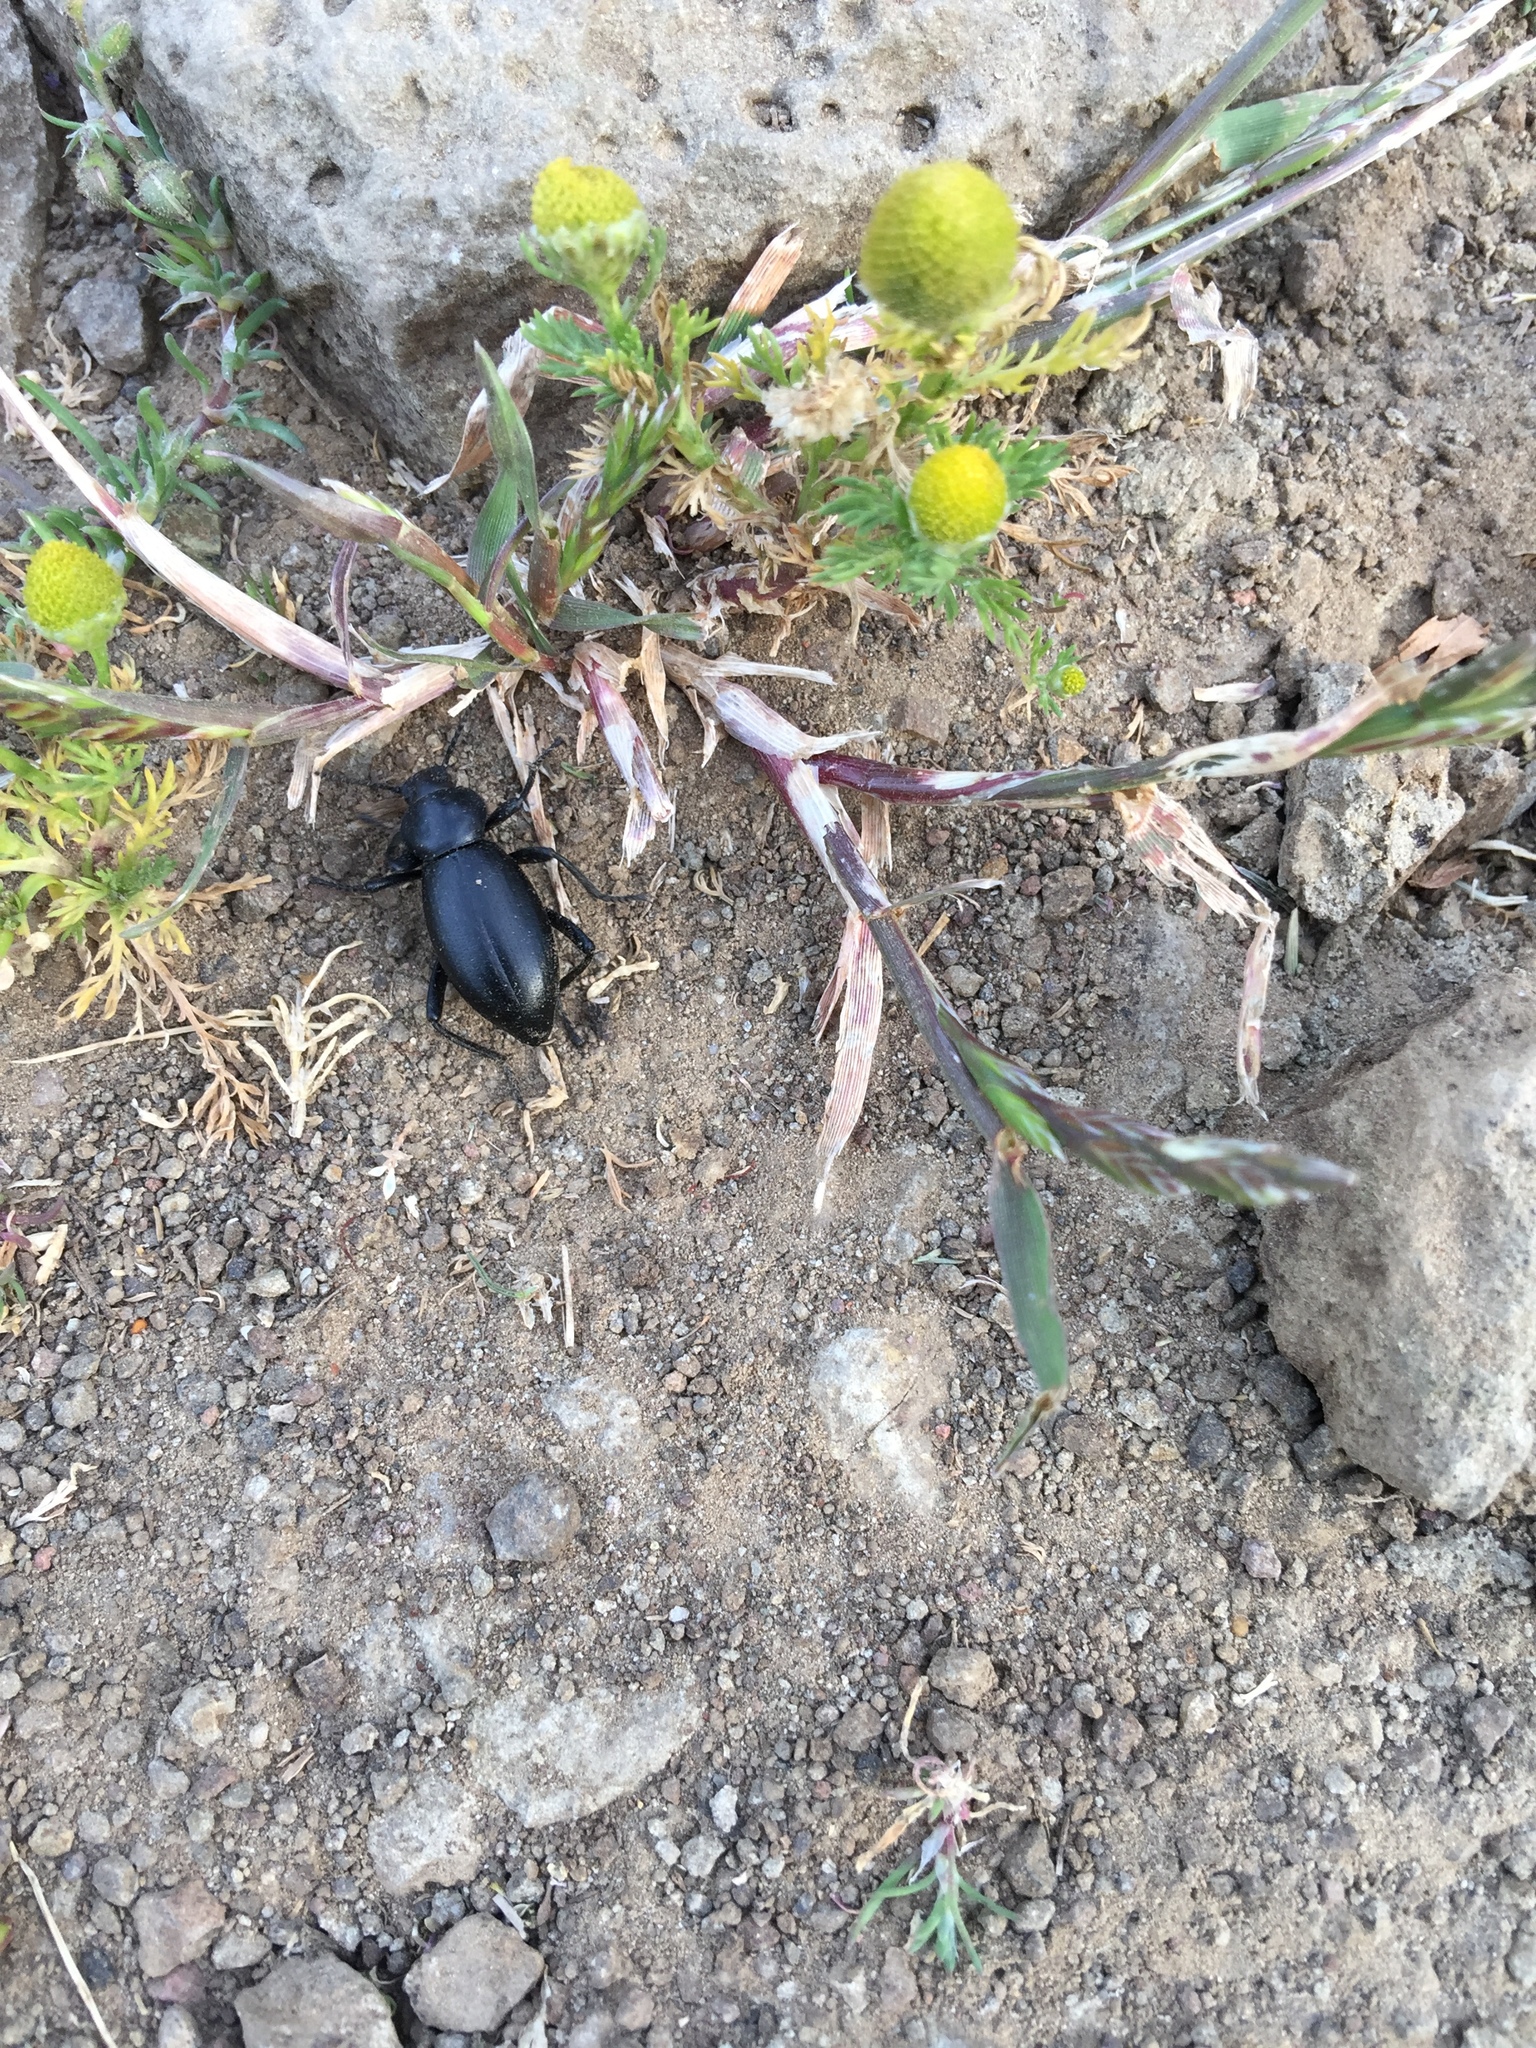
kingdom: Plantae
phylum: Tracheophyta
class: Magnoliopsida
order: Asterales
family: Asteraceae
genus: Matricaria
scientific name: Matricaria discoidea
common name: Disc mayweed
